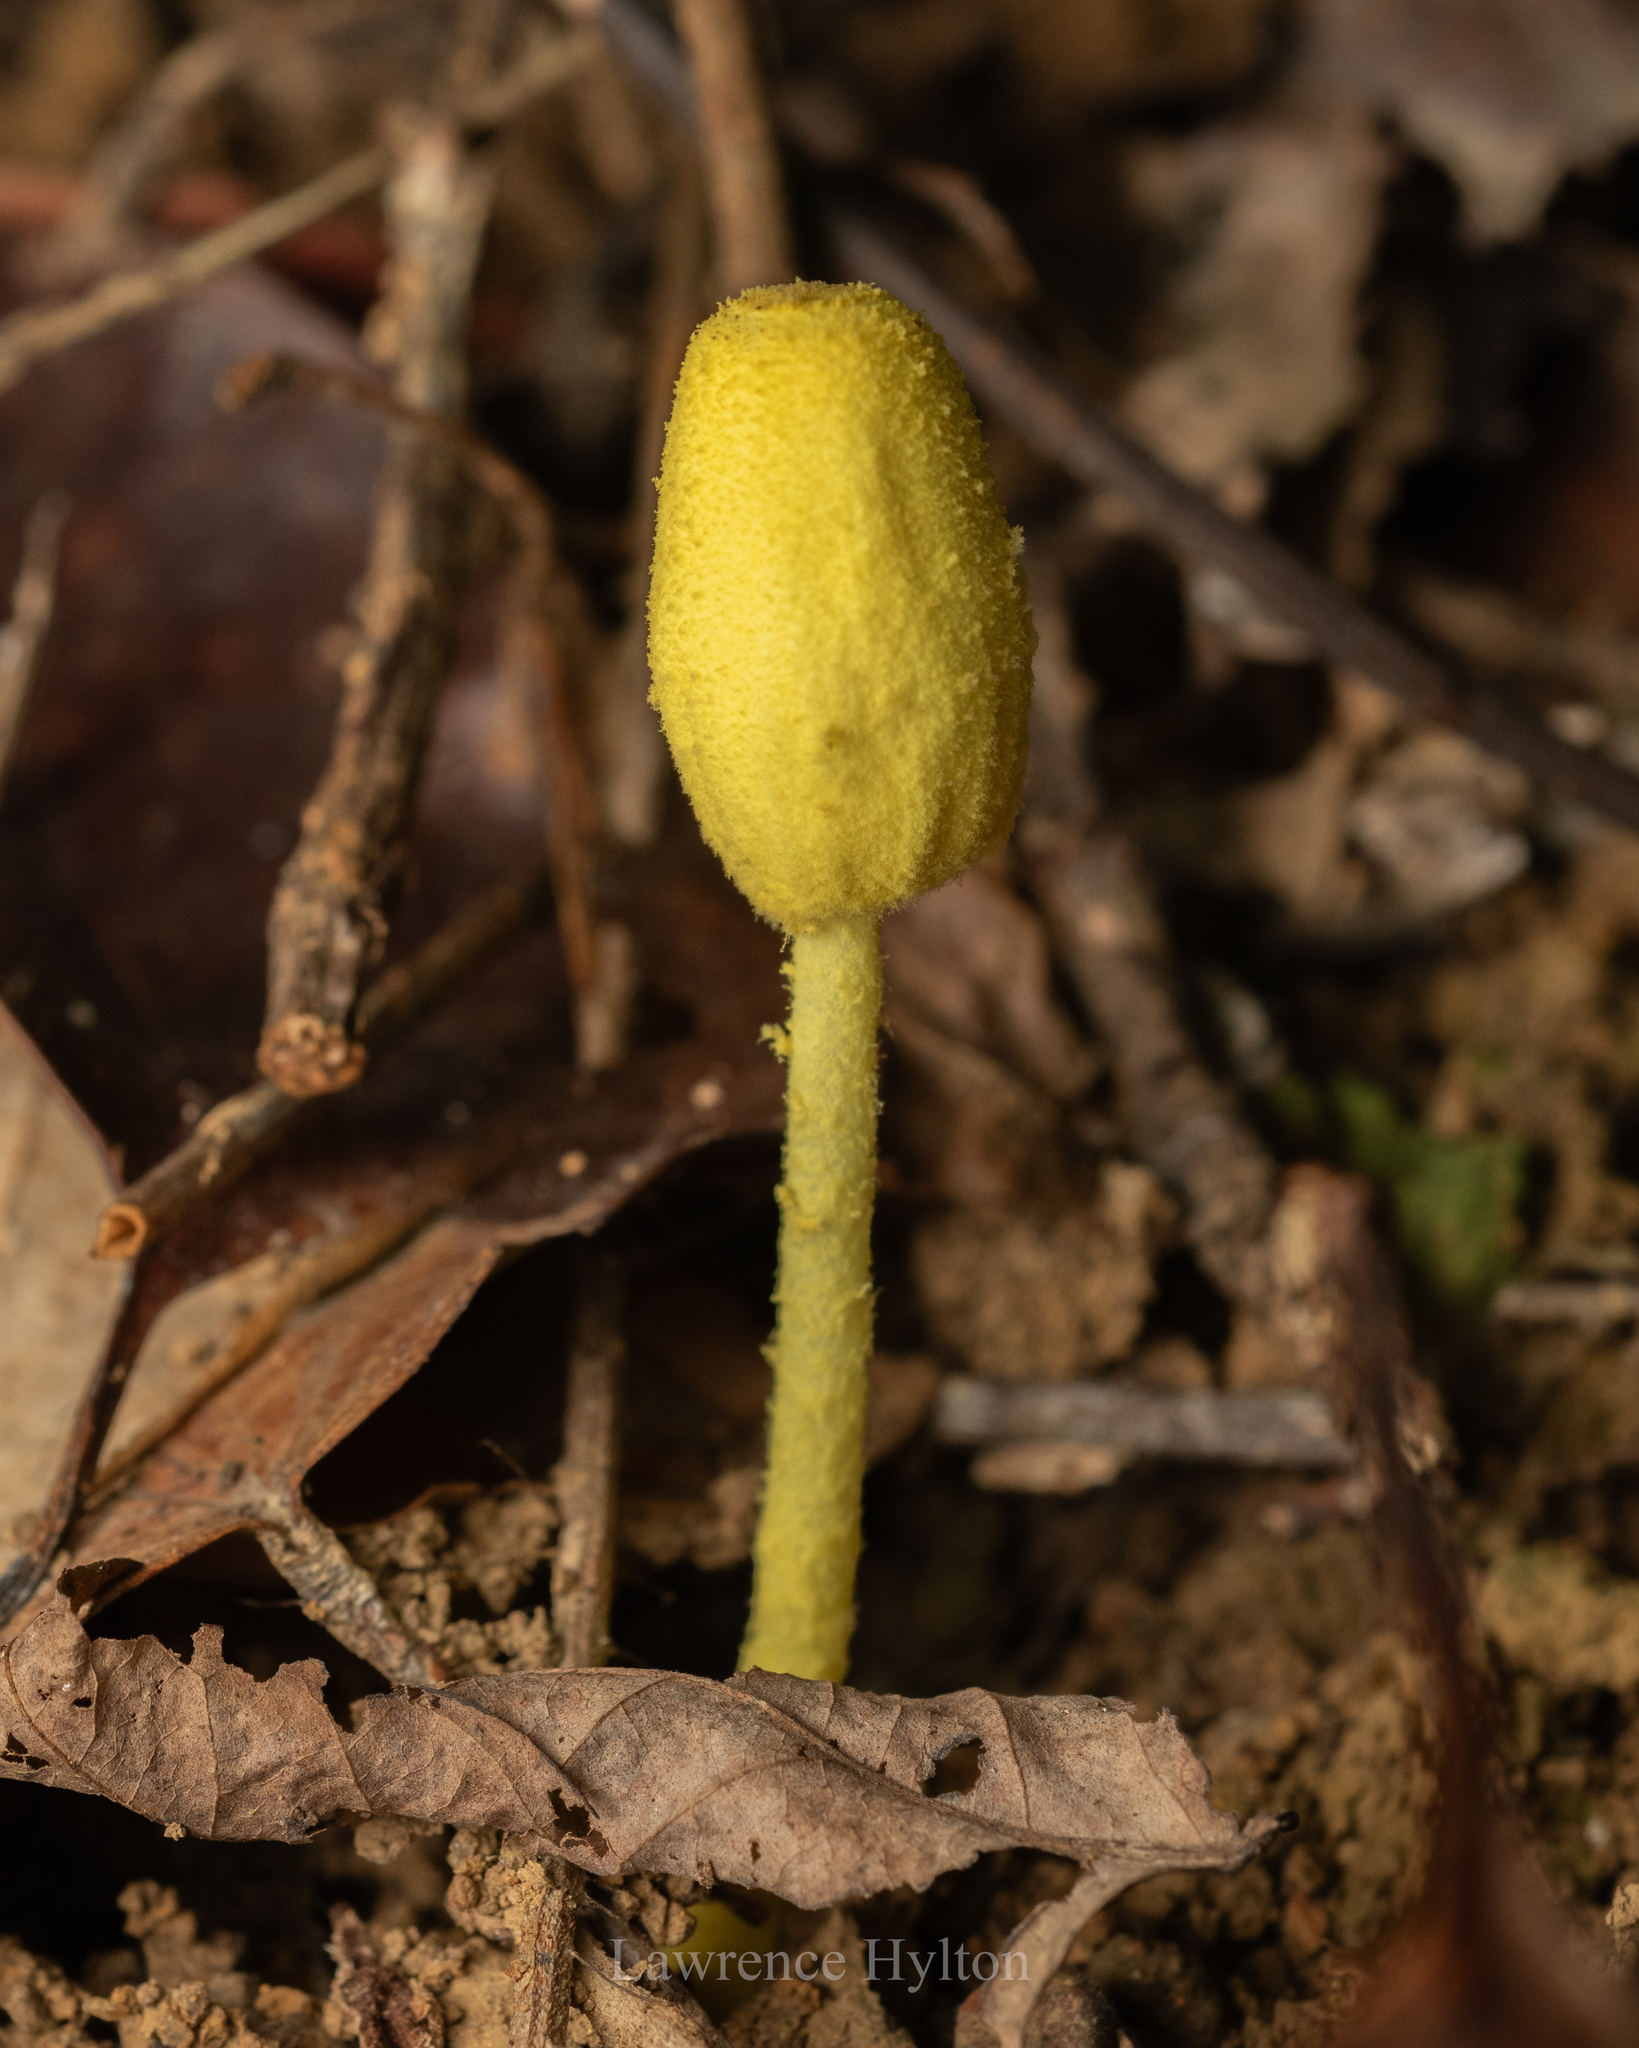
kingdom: Fungi
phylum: Basidiomycota
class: Agaricomycetes
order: Agaricales
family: Agaricaceae
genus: Leucocoprinus
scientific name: Leucocoprinus birnbaumii
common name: Plantpot dapperling
